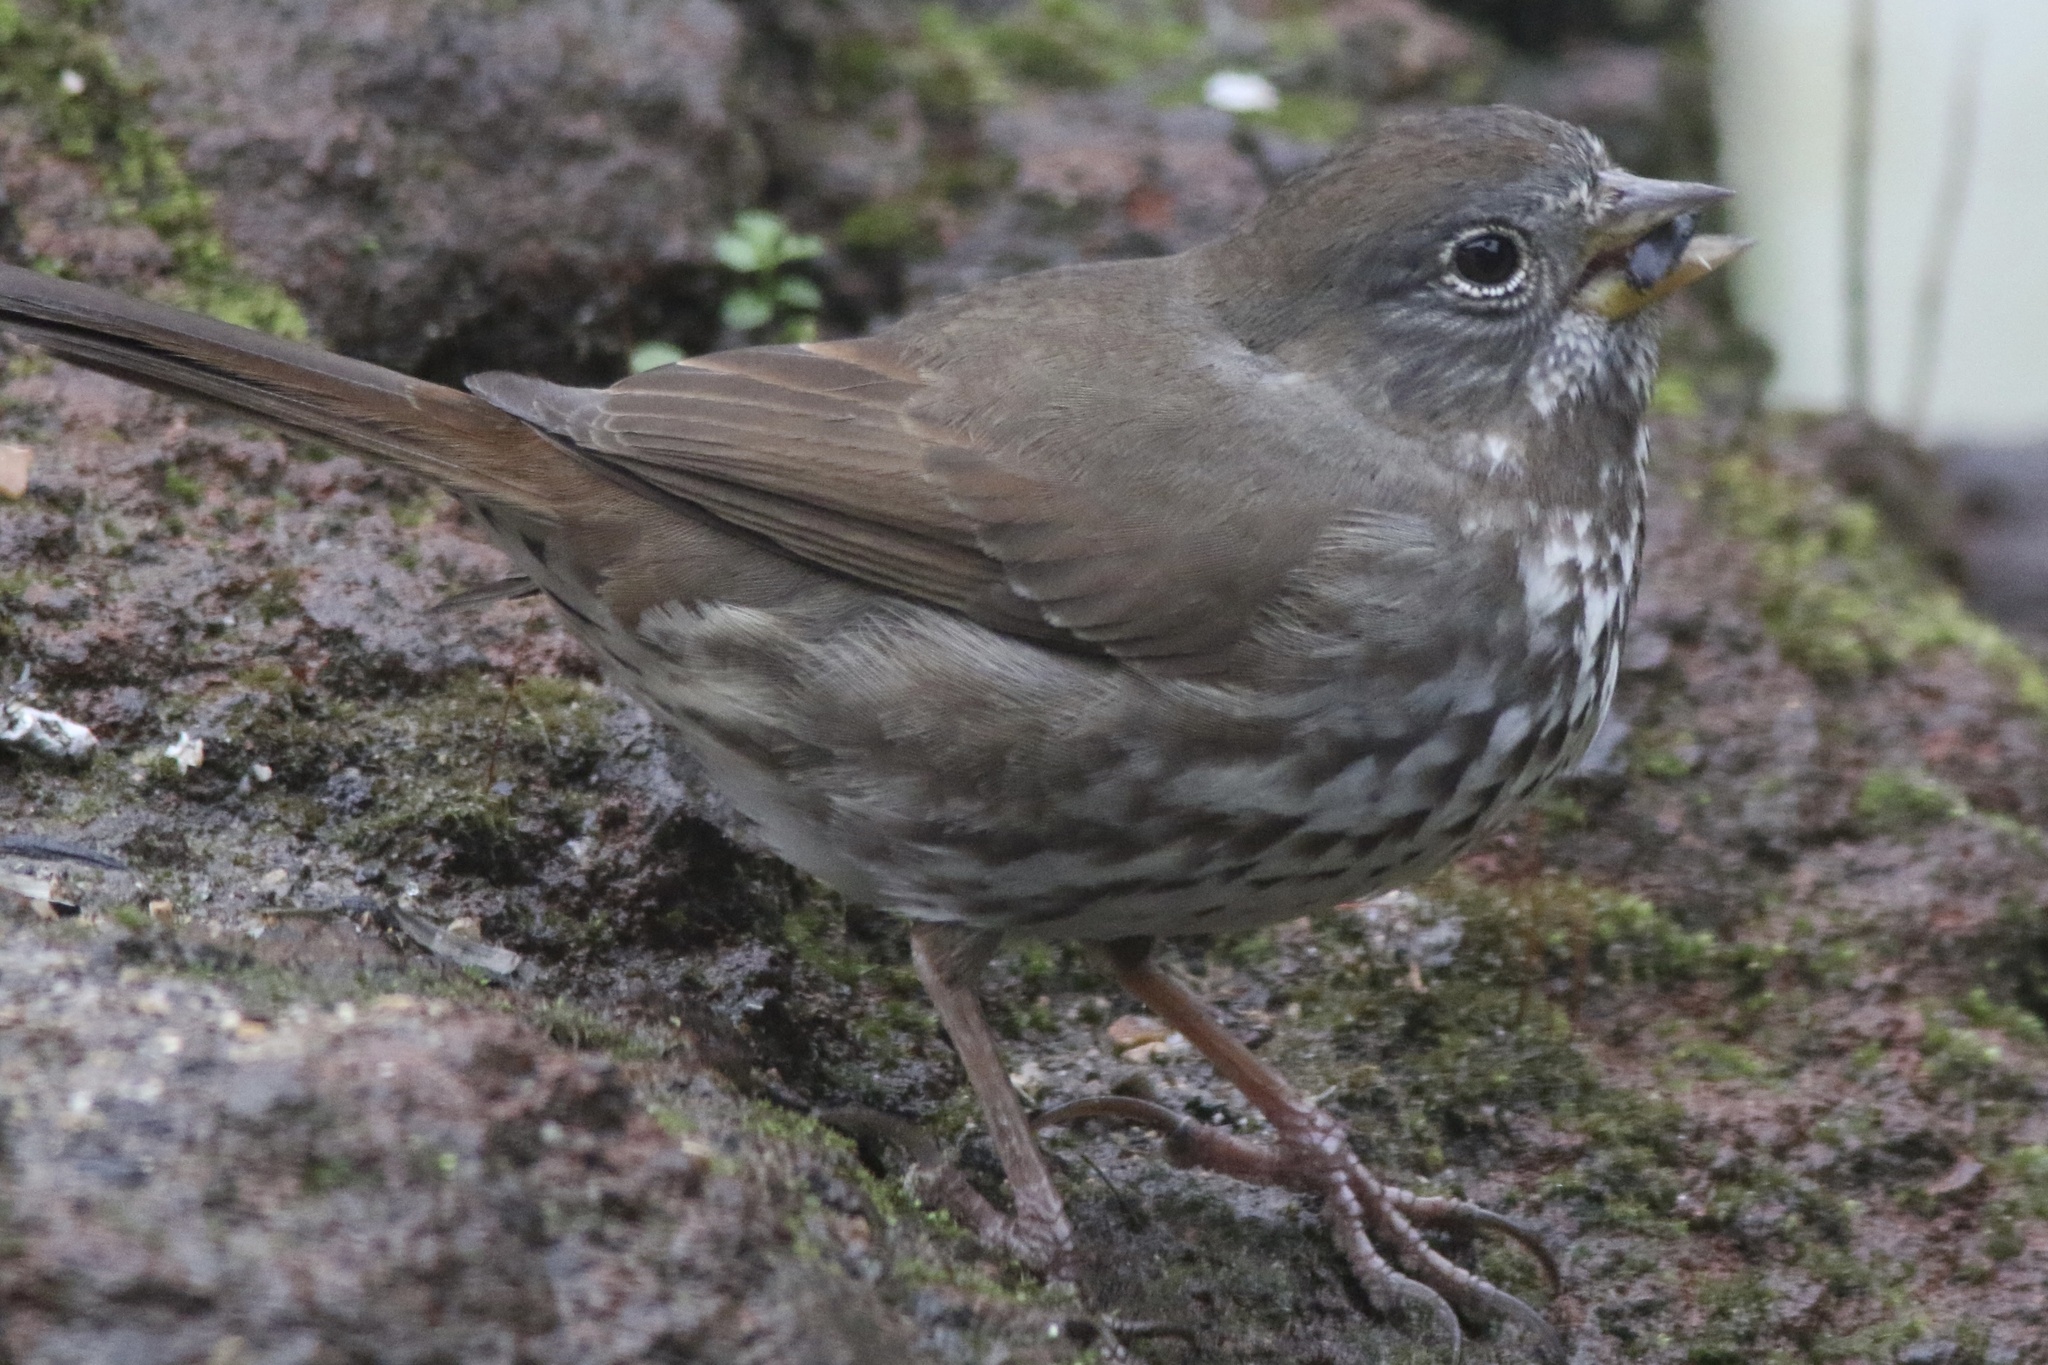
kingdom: Animalia
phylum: Chordata
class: Aves
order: Passeriformes
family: Passerellidae
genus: Passerella
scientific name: Passerella iliaca
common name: Fox sparrow
